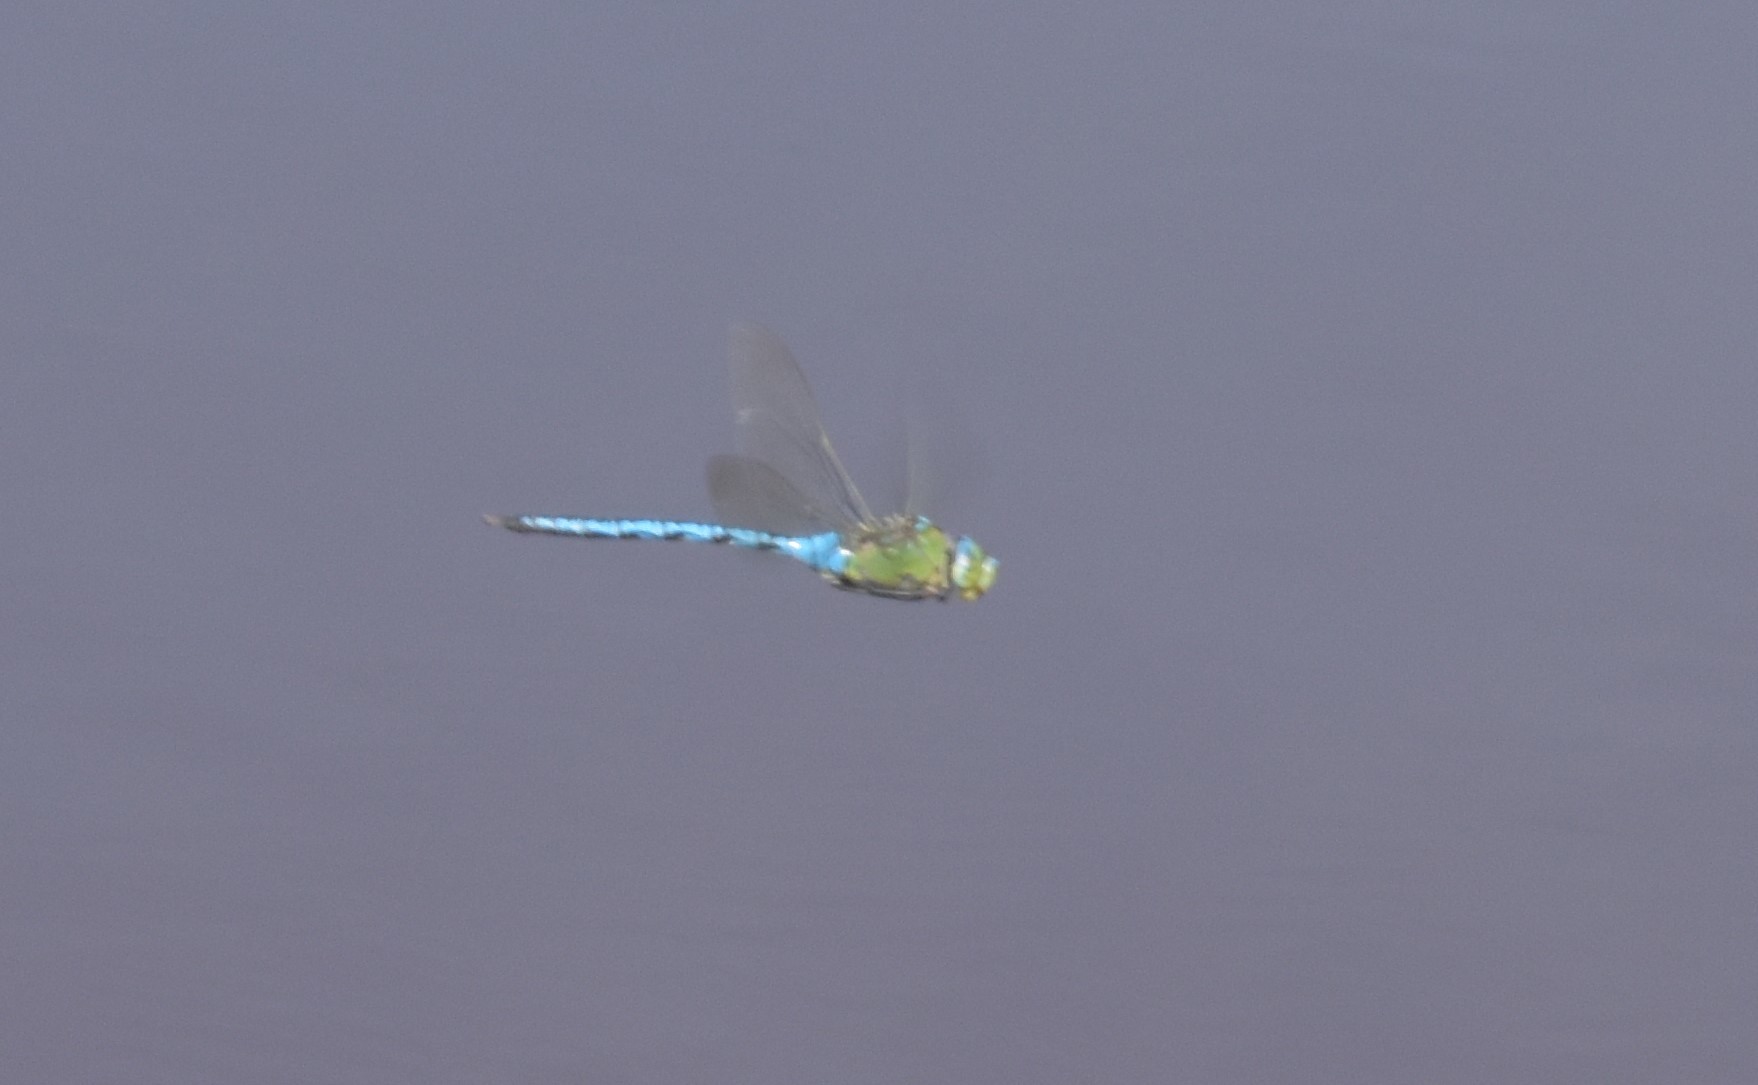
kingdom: Animalia
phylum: Arthropoda
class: Insecta
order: Odonata
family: Aeshnidae
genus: Anax
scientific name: Anax imperator
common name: Emperor dragonfly
